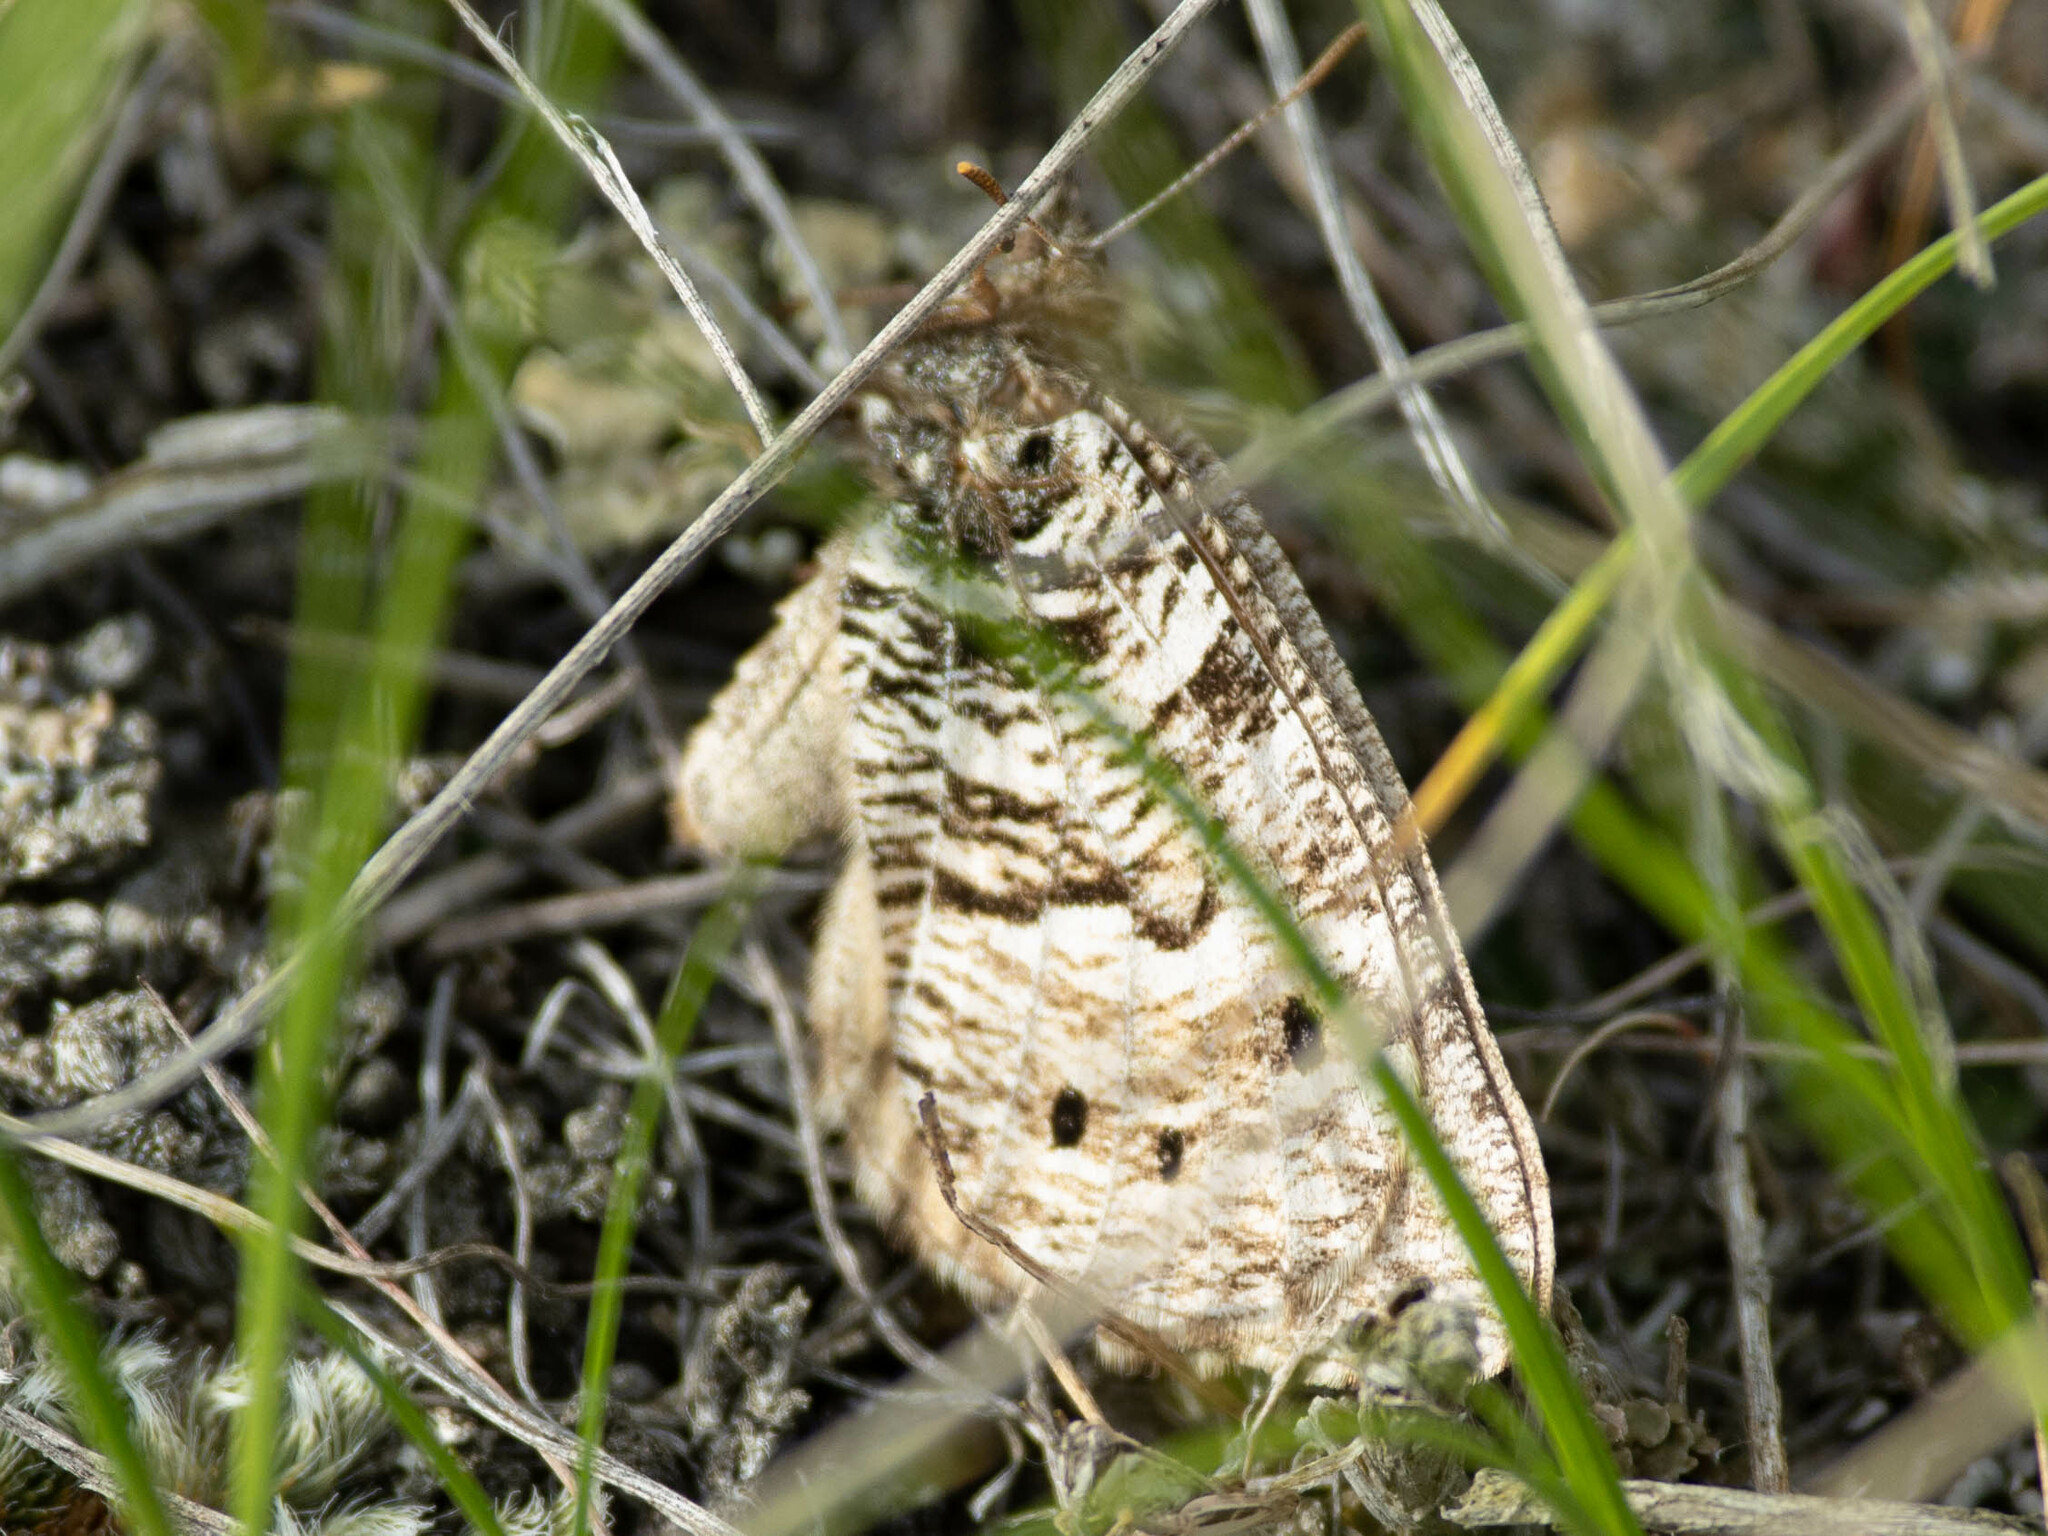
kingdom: Animalia
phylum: Arthropoda
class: Insecta
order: Lepidoptera
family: Nymphalidae
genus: Oeneis
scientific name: Oeneis uhleri
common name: Uhler's arctic
